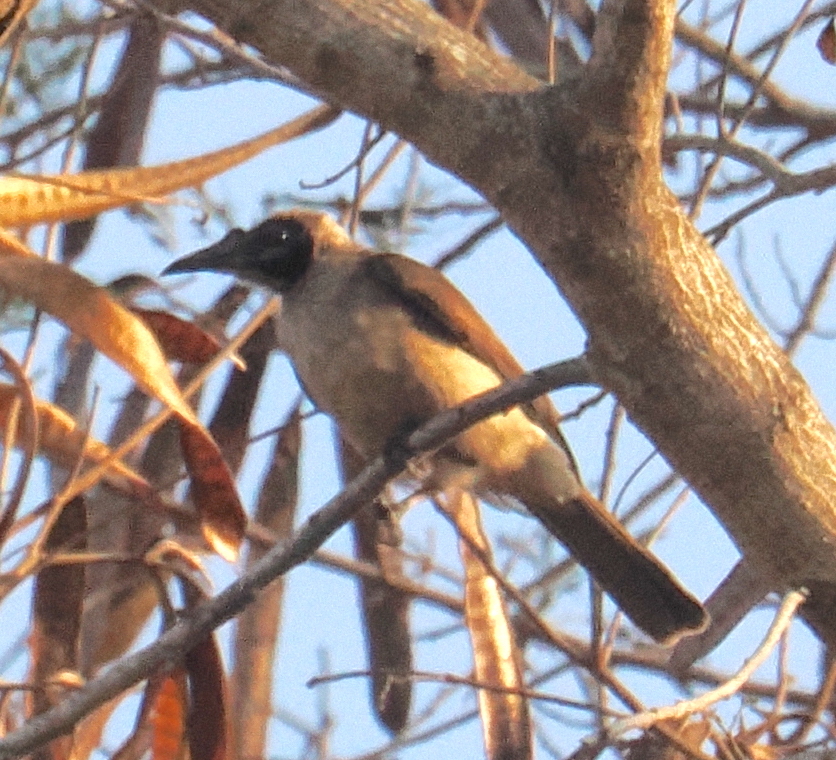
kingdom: Animalia
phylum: Chordata
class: Aves
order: Passeriformes
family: Meliphagidae
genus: Philemon
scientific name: Philemon buceroides
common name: Helmeted friarbird
